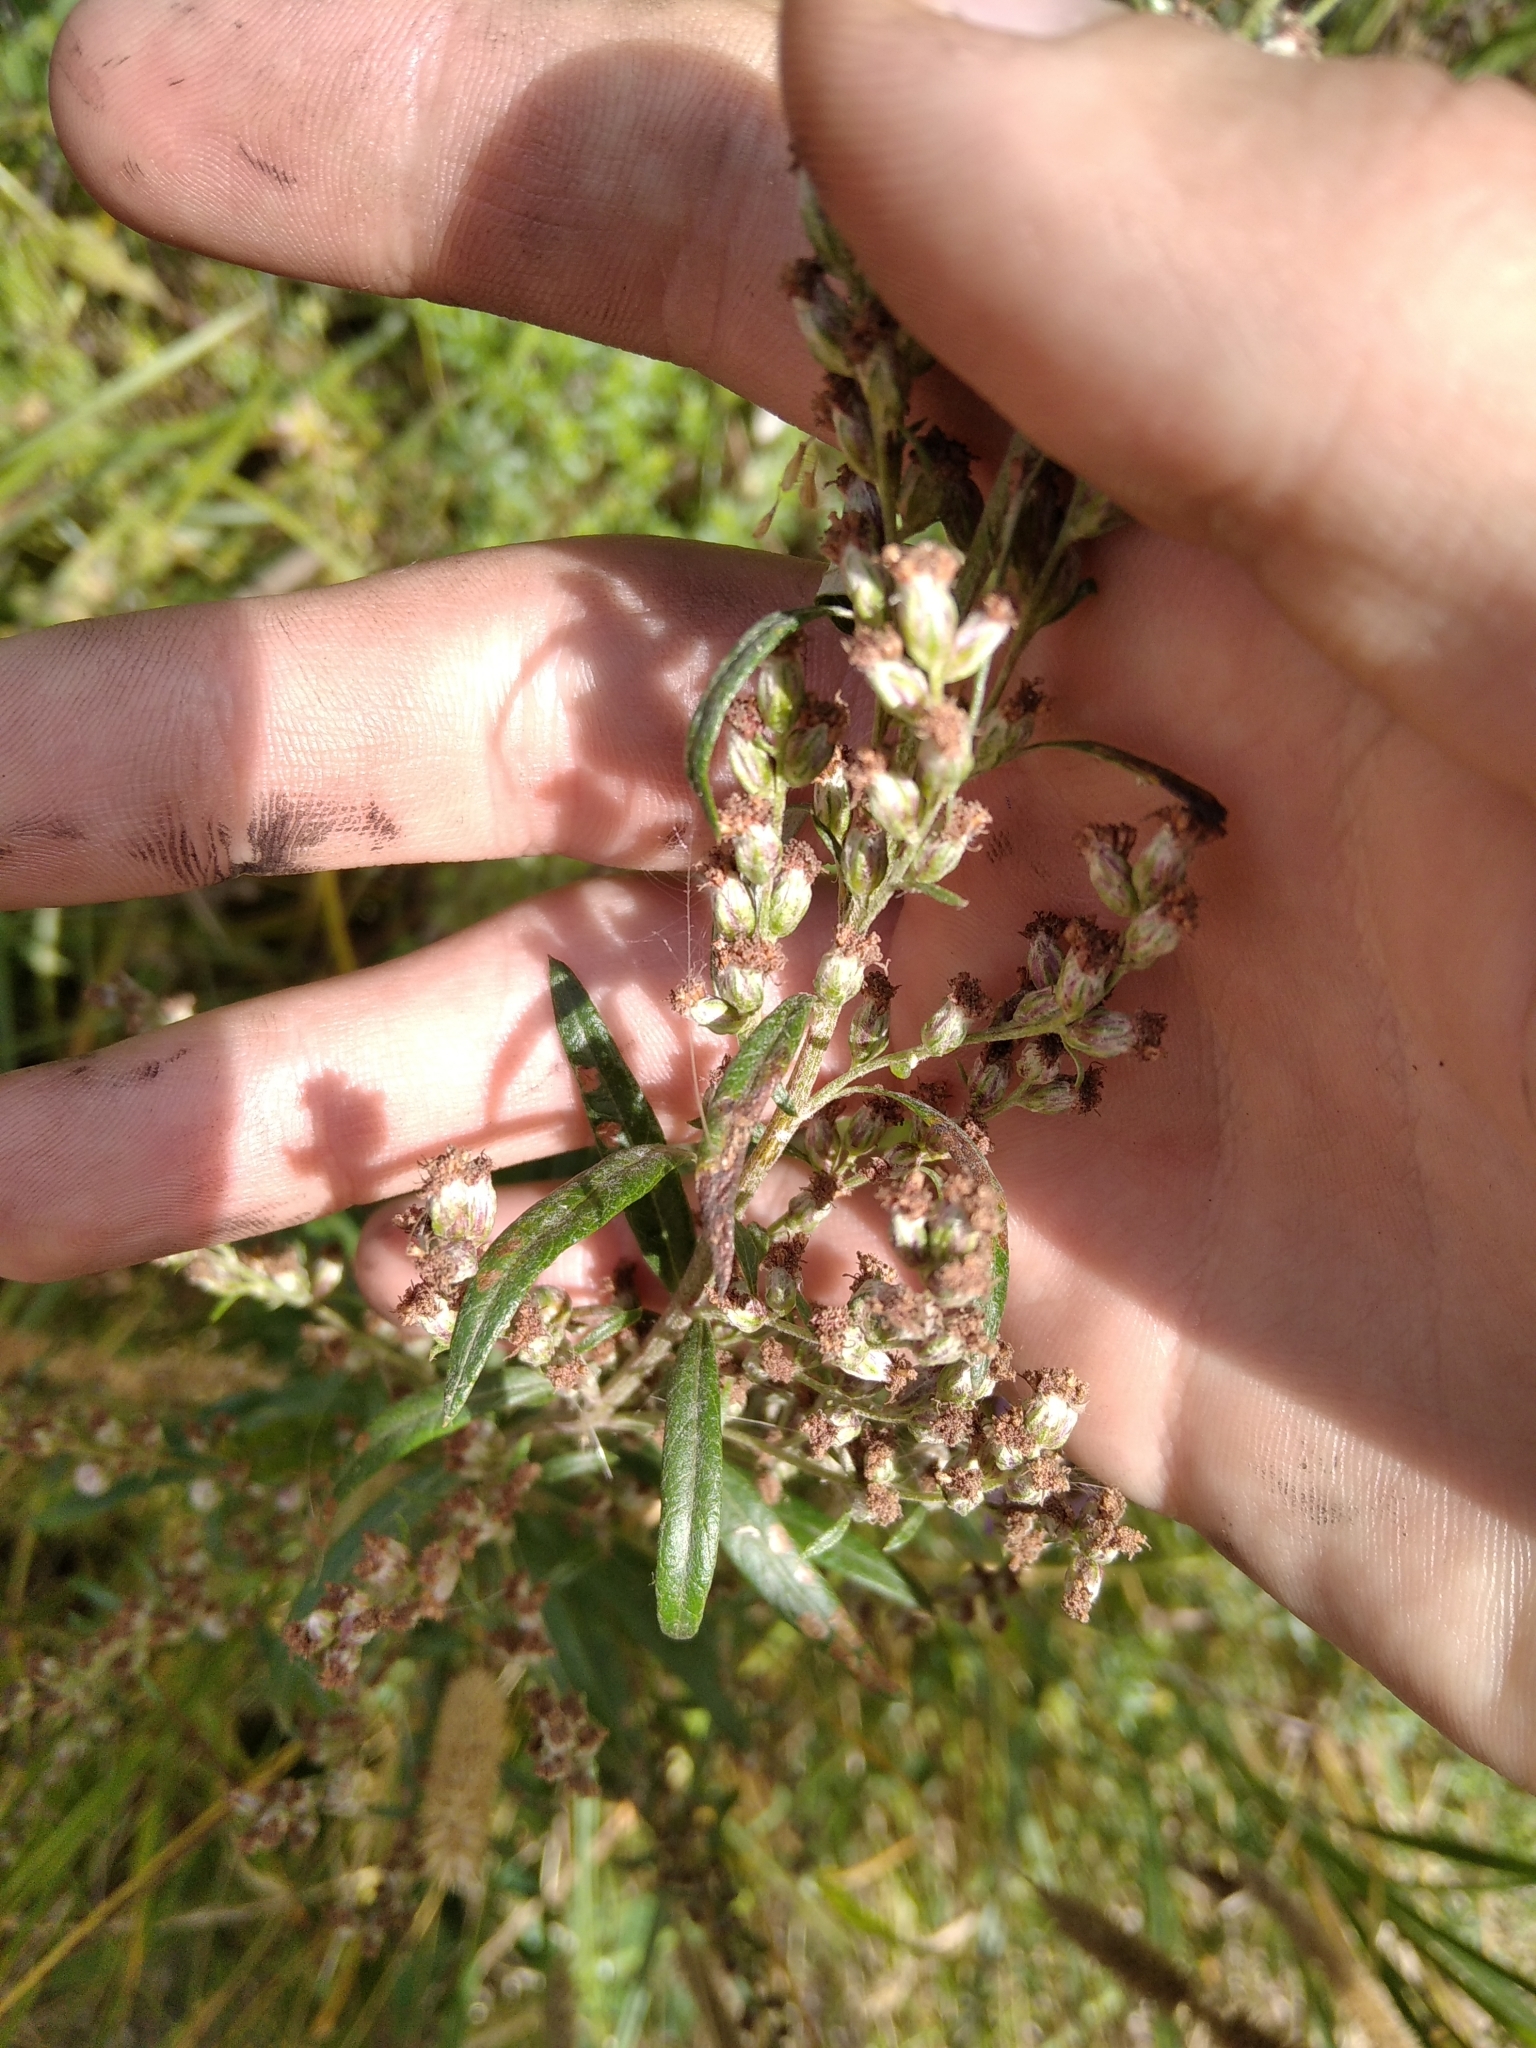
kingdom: Plantae
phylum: Tracheophyta
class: Magnoliopsida
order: Asterales
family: Asteraceae
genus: Artemisia
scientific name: Artemisia vulgaris
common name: Mugwort
